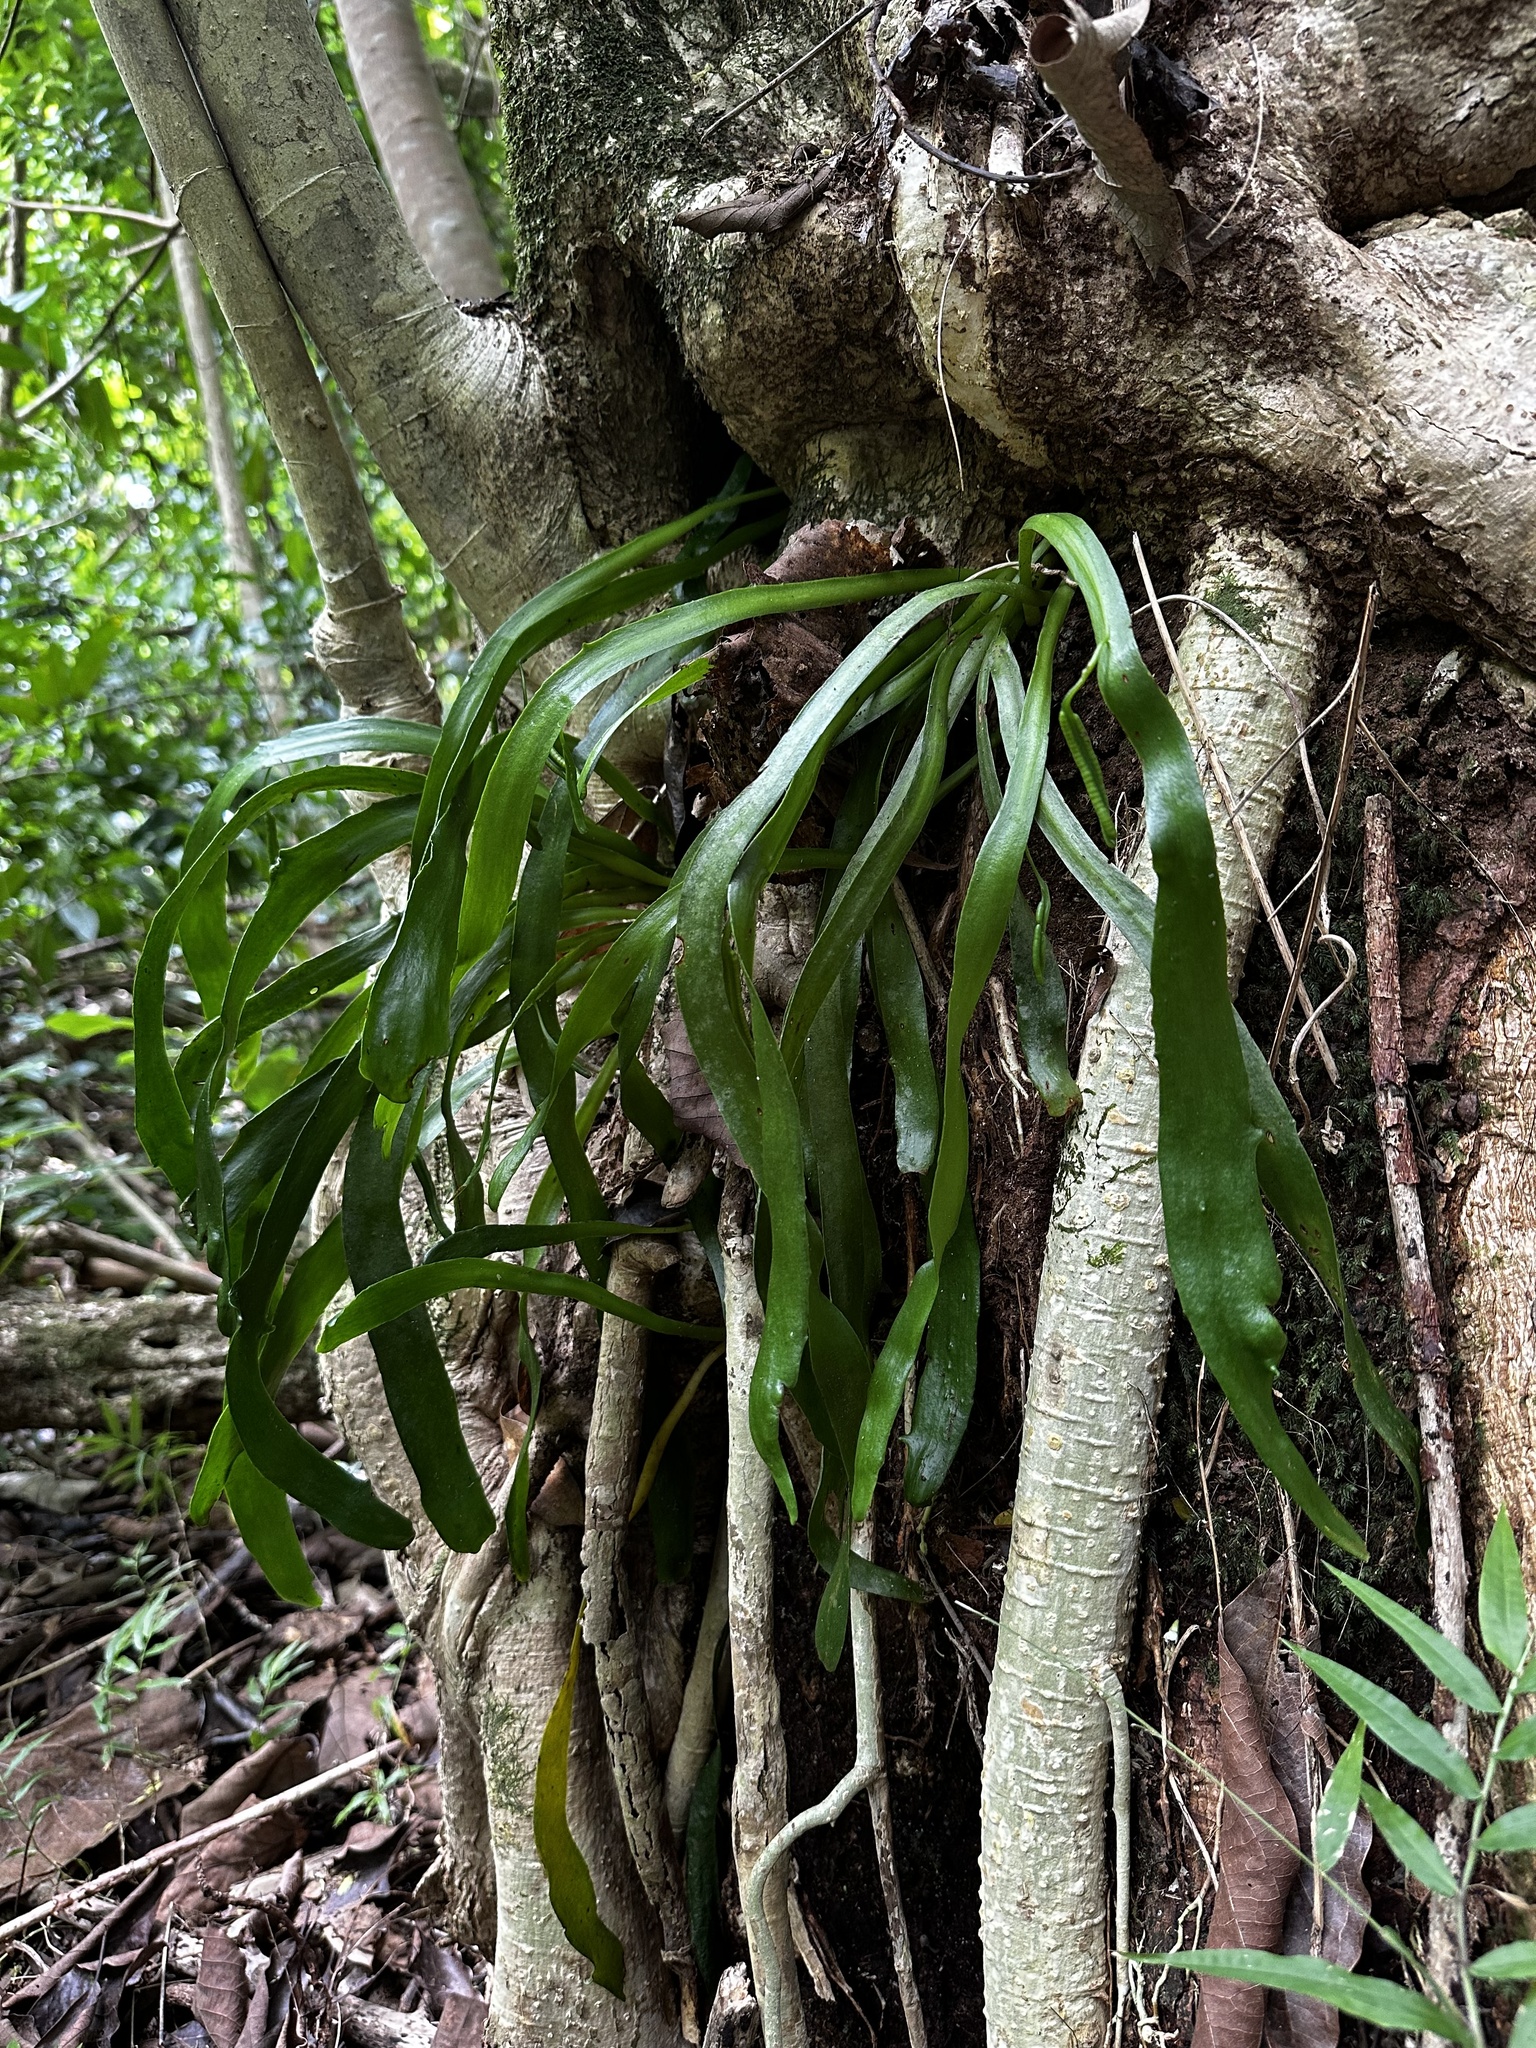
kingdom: Plantae
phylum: Tracheophyta
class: Polypodiopsida
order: Ophioglossales
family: Ophioglossaceae
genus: Ophioderma
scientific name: Ophioderma pendulum
